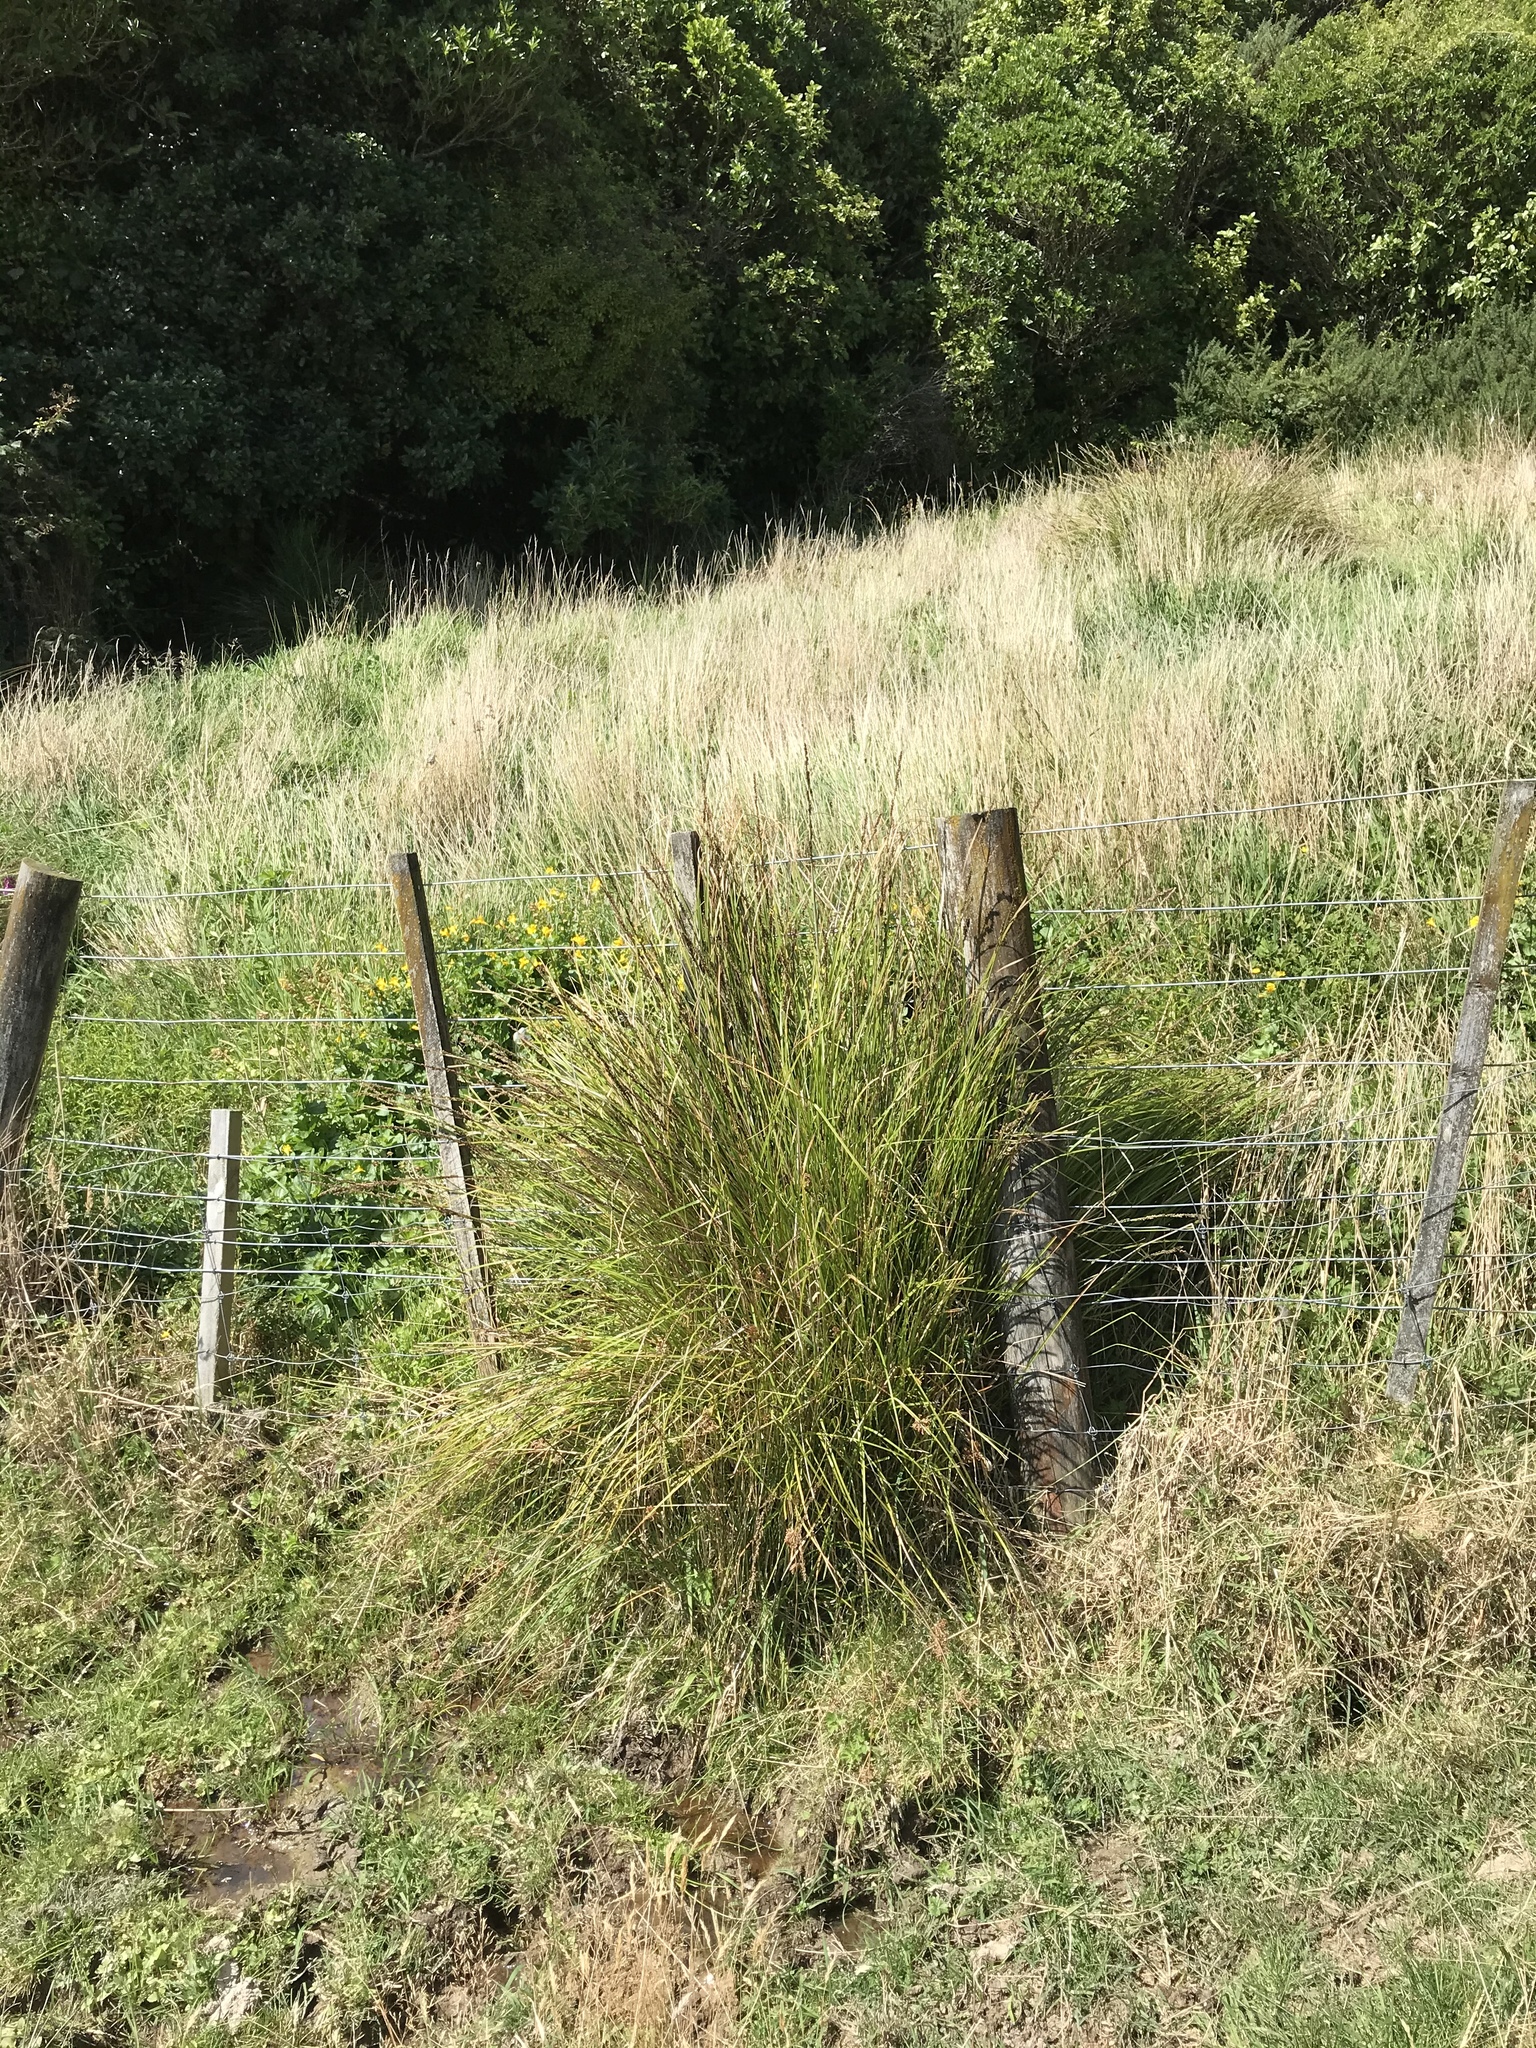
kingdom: Plantae
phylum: Tracheophyta
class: Liliopsida
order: Poales
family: Cyperaceae
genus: Carex
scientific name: Carex virgata
